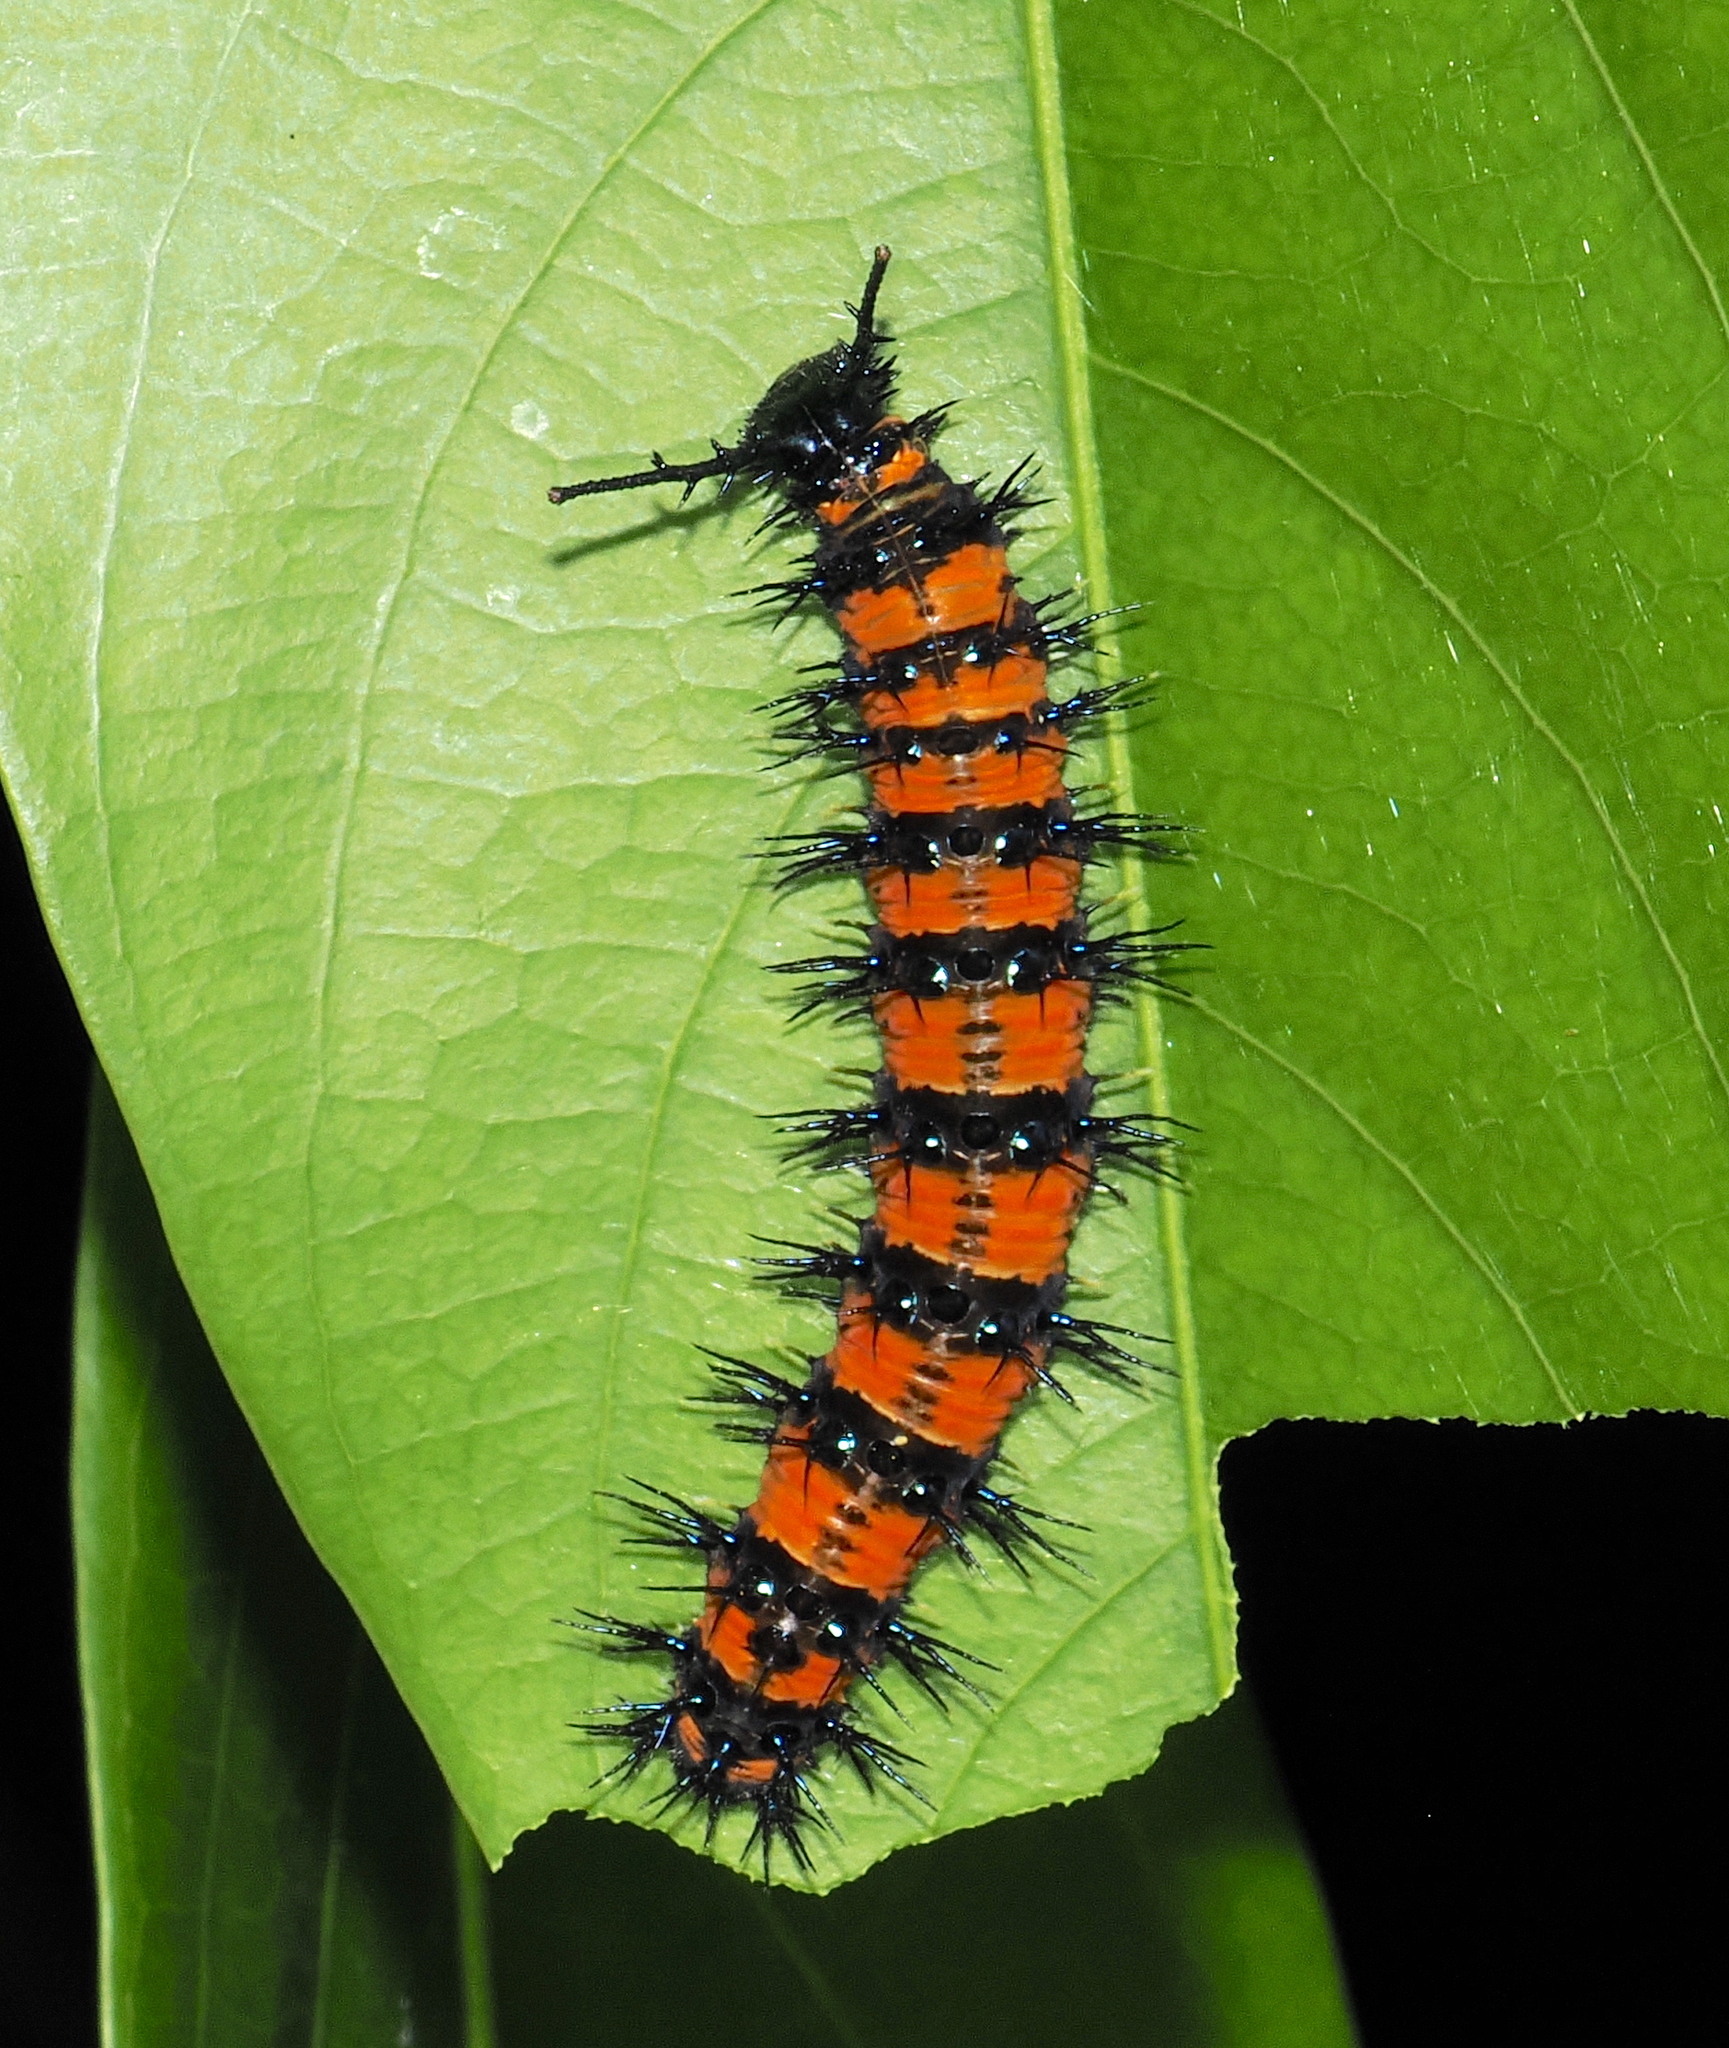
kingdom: Animalia
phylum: Arthropoda
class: Insecta
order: Lepidoptera
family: Nymphalidae
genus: Panacea
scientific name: Panacea prola
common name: Red flasher
